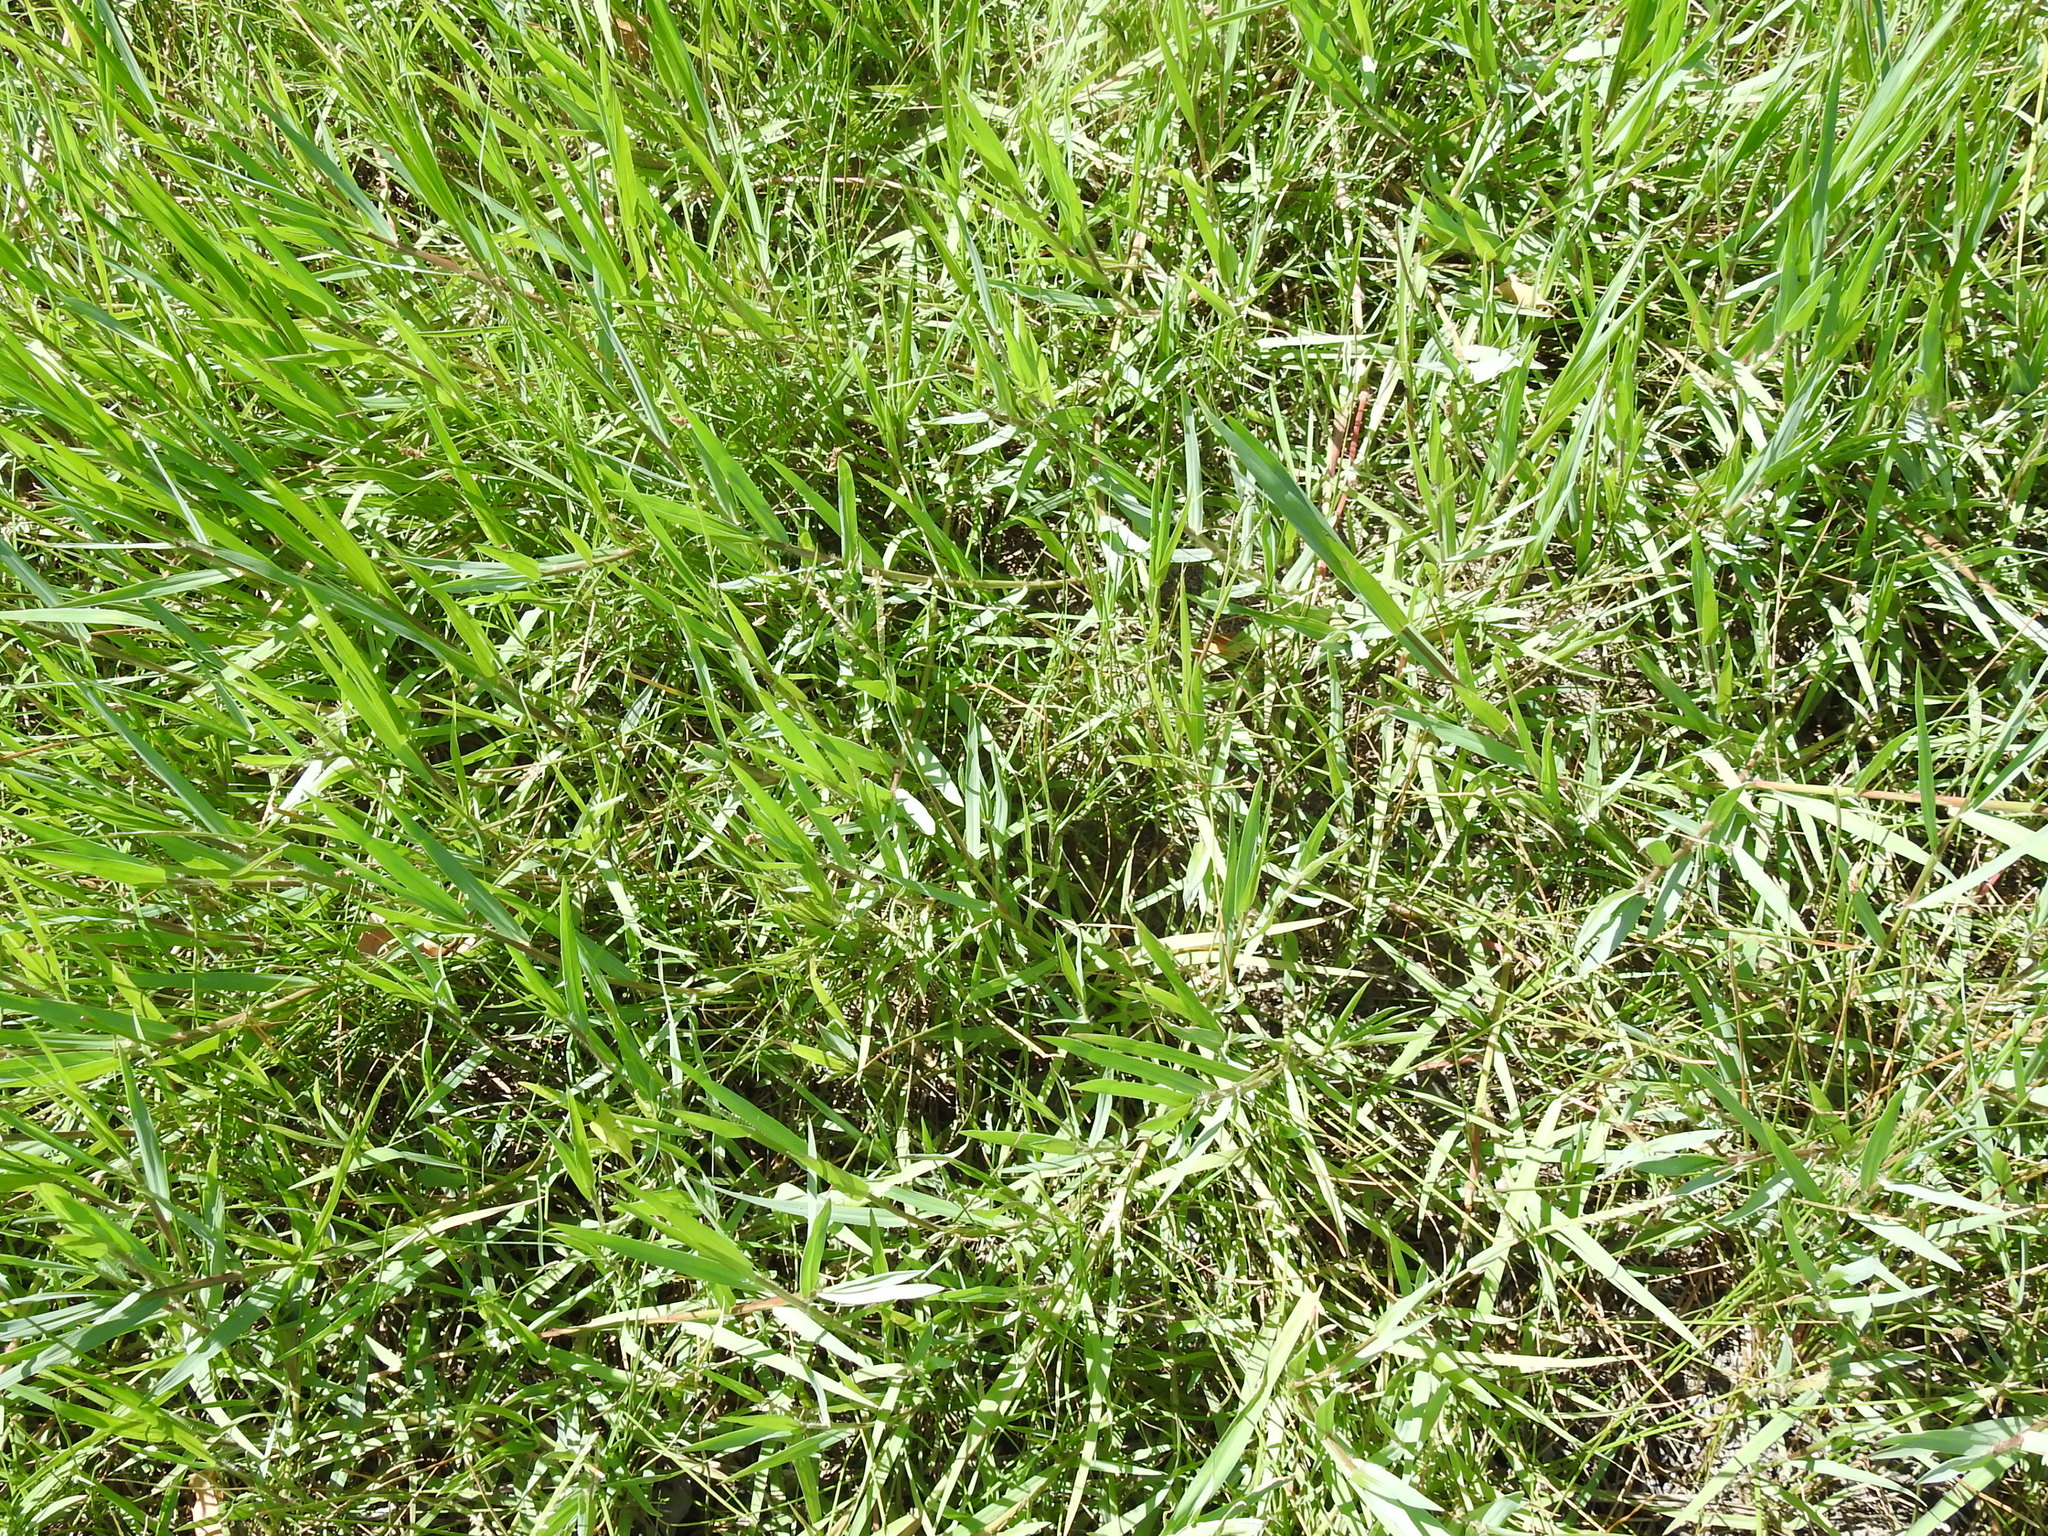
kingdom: Plantae
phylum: Tracheophyta
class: Liliopsida
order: Poales
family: Poaceae
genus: Paspalum
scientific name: Paspalum distichum
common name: Knotgrass
